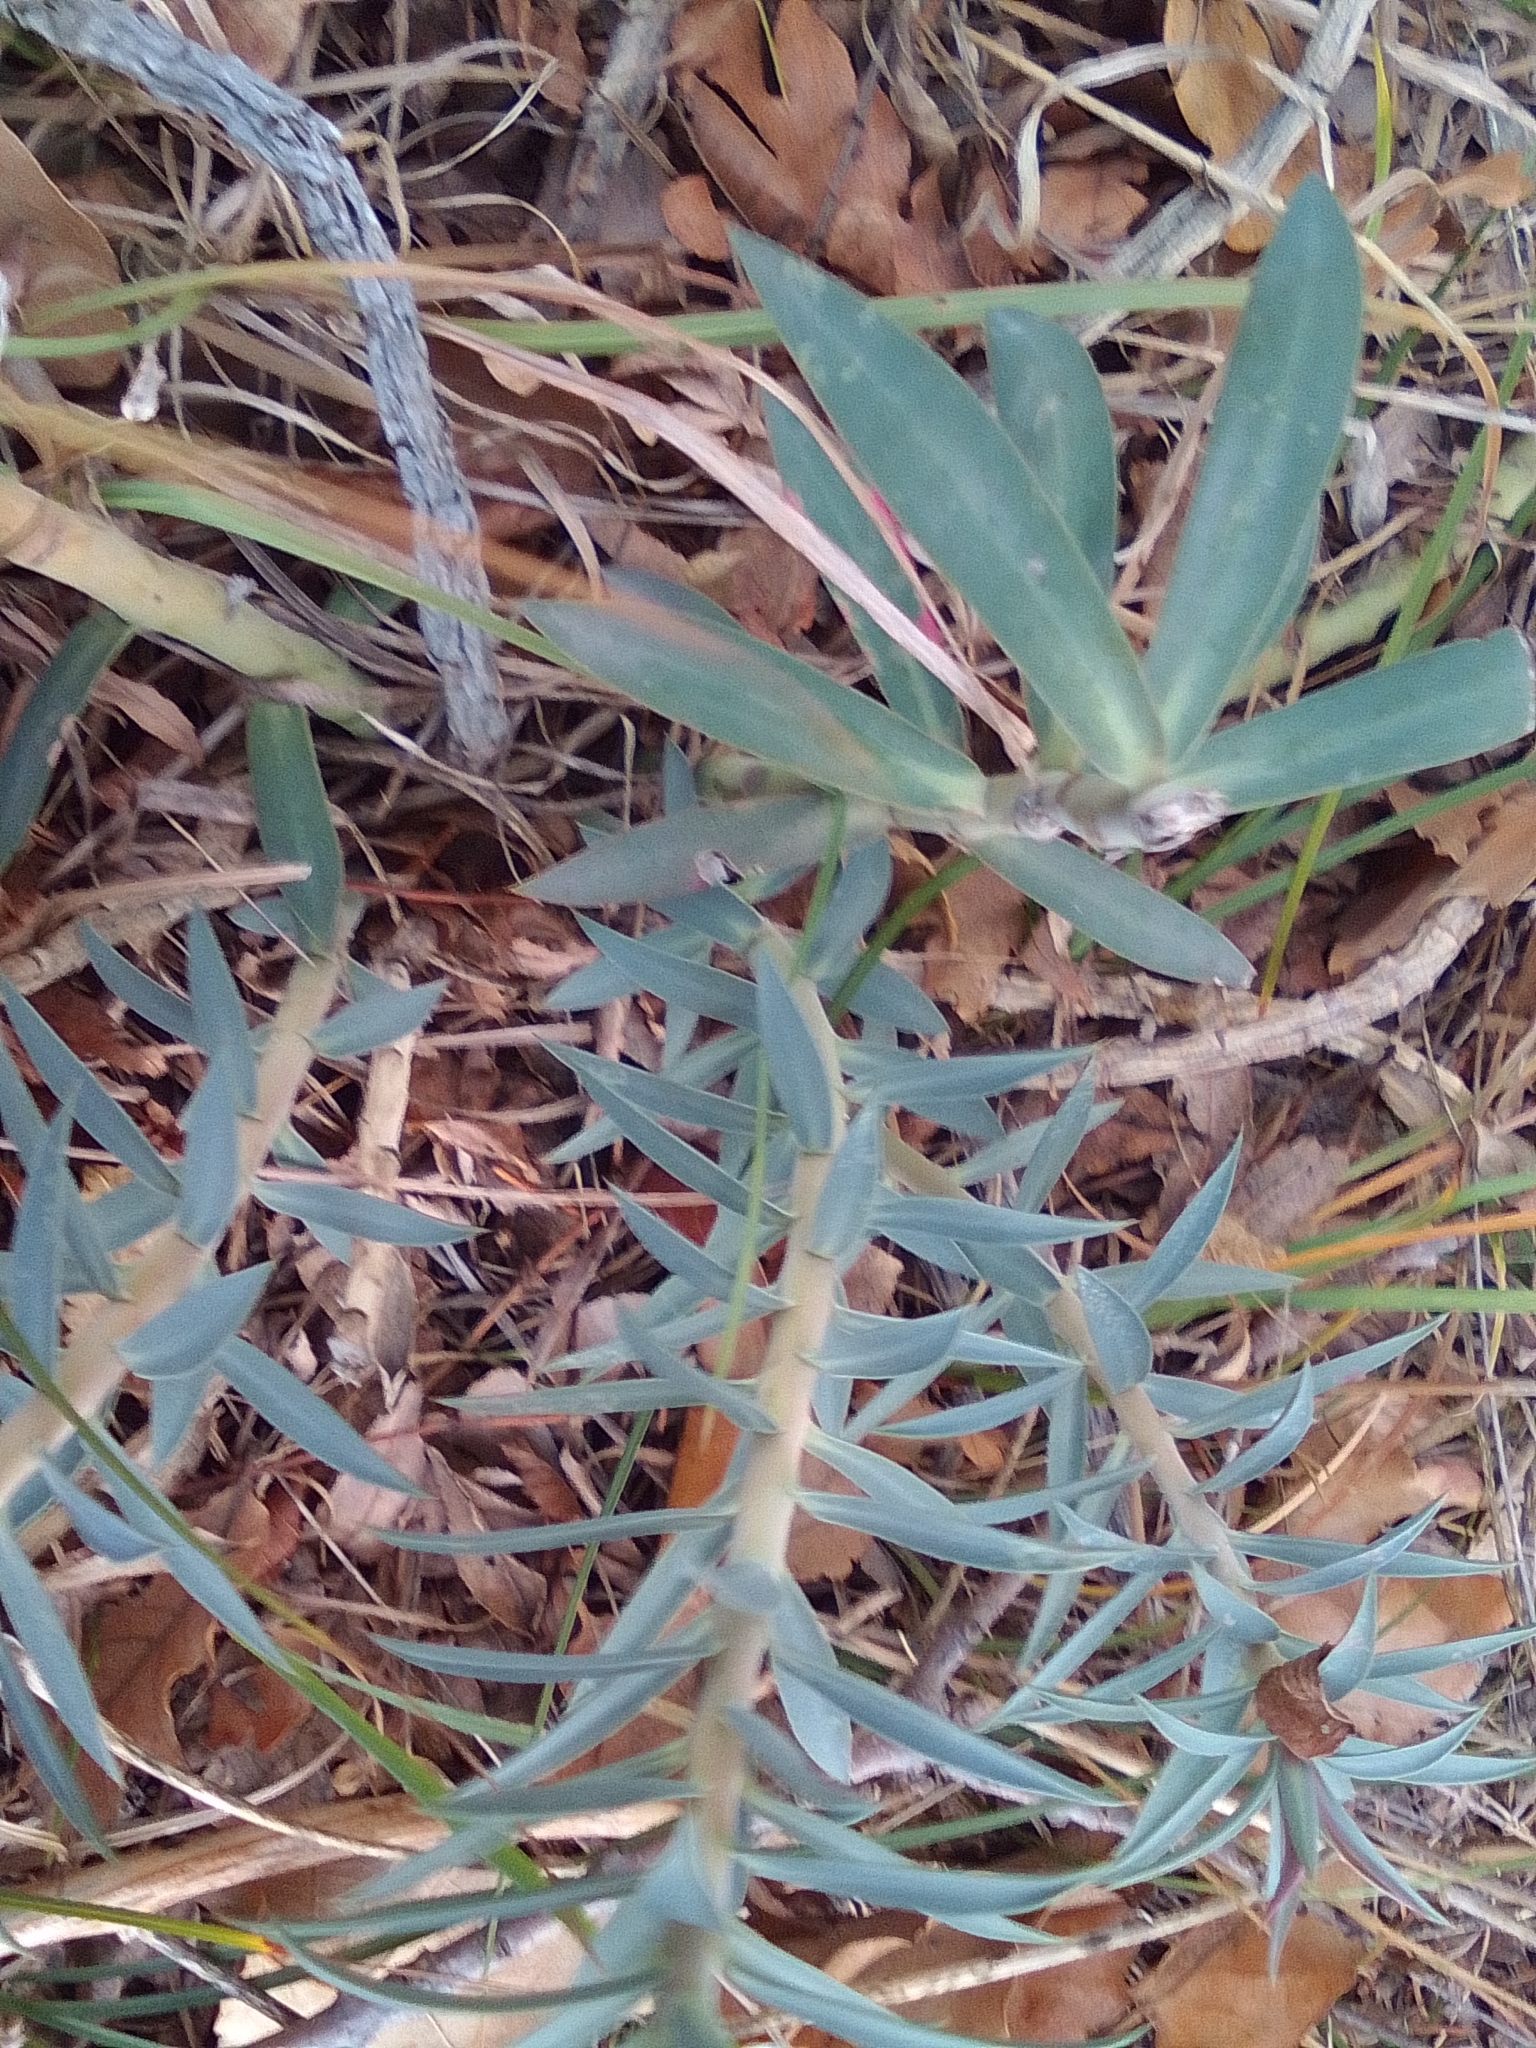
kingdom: Plantae
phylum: Tracheophyta
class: Magnoliopsida
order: Malpighiales
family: Euphorbiaceae
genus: Euphorbia
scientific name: Euphorbia rigida
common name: Upright myrtle spurge
